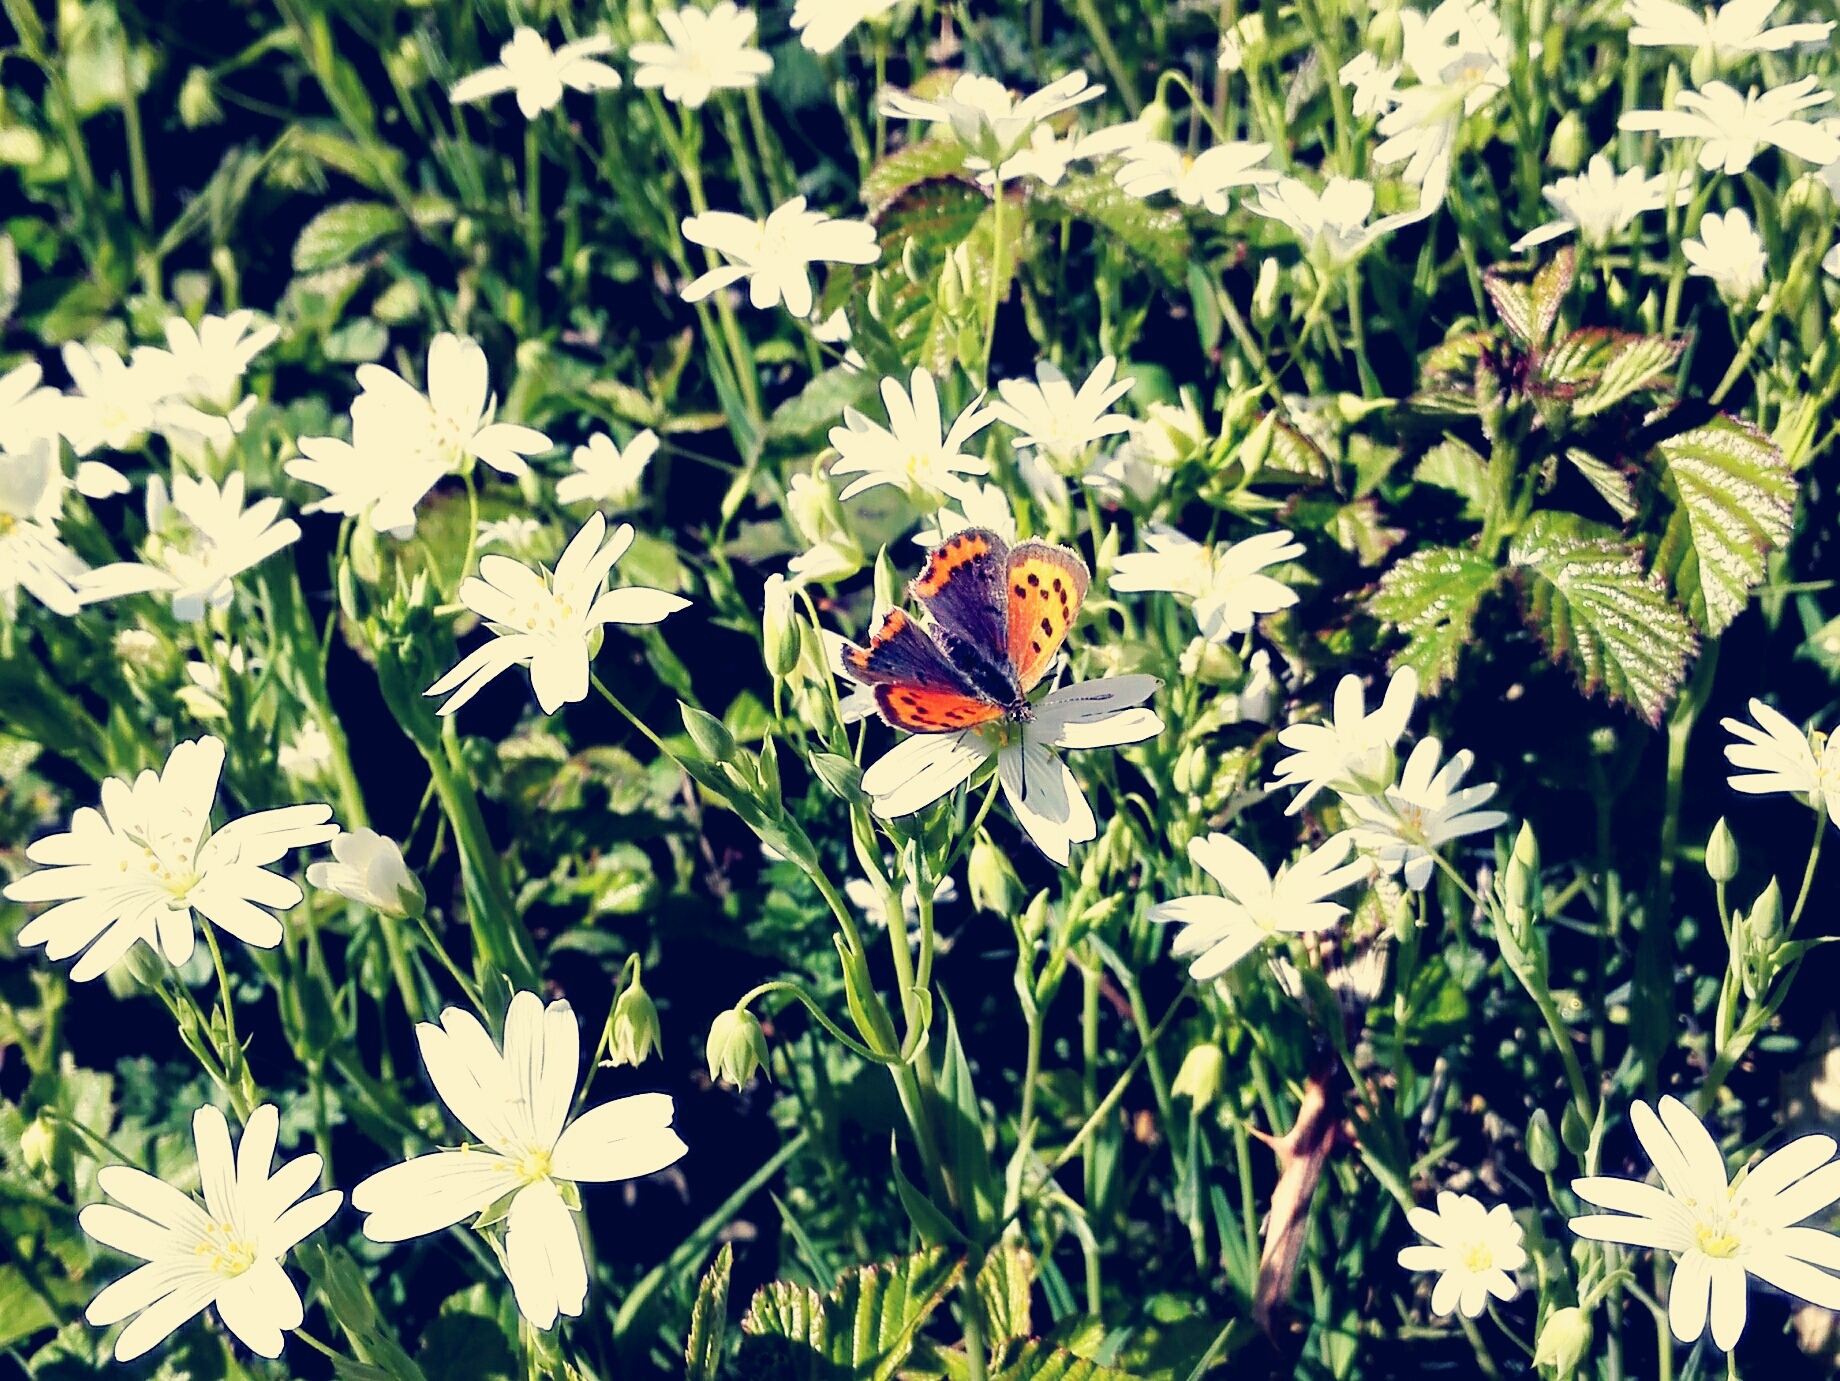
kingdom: Animalia
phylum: Arthropoda
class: Insecta
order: Lepidoptera
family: Lycaenidae
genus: Lycaena
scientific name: Lycaena phlaeas
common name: Small copper
